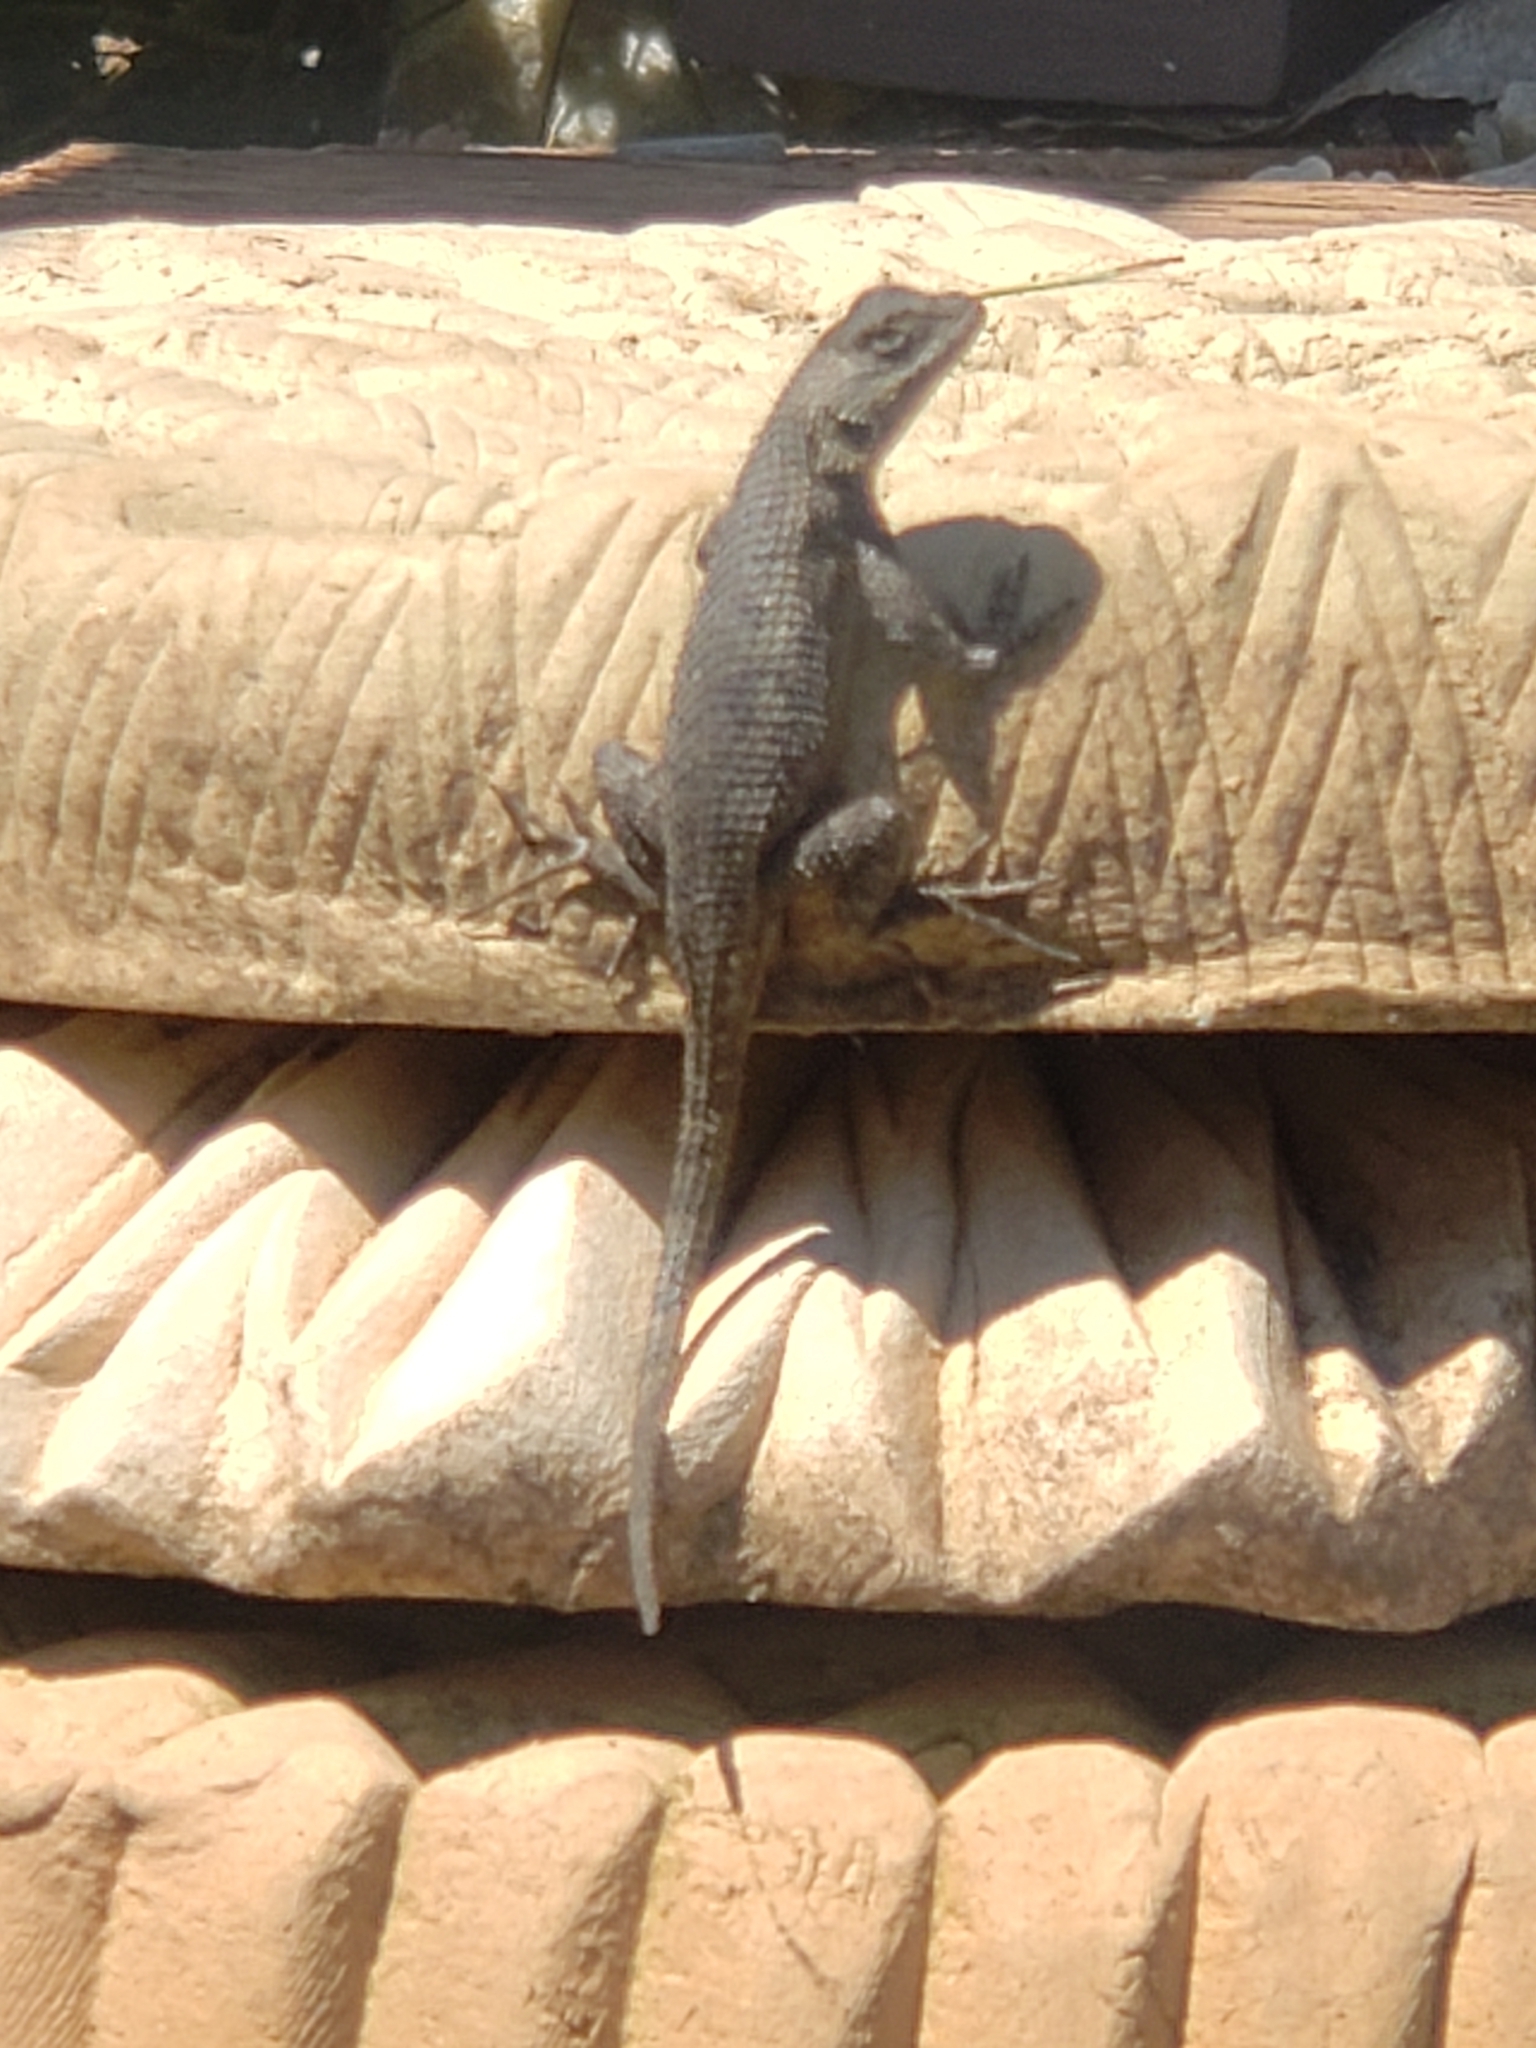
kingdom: Animalia
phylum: Chordata
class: Squamata
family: Phrynosomatidae
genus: Sceloporus
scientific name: Sceloporus occidentalis
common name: Western fence lizard
